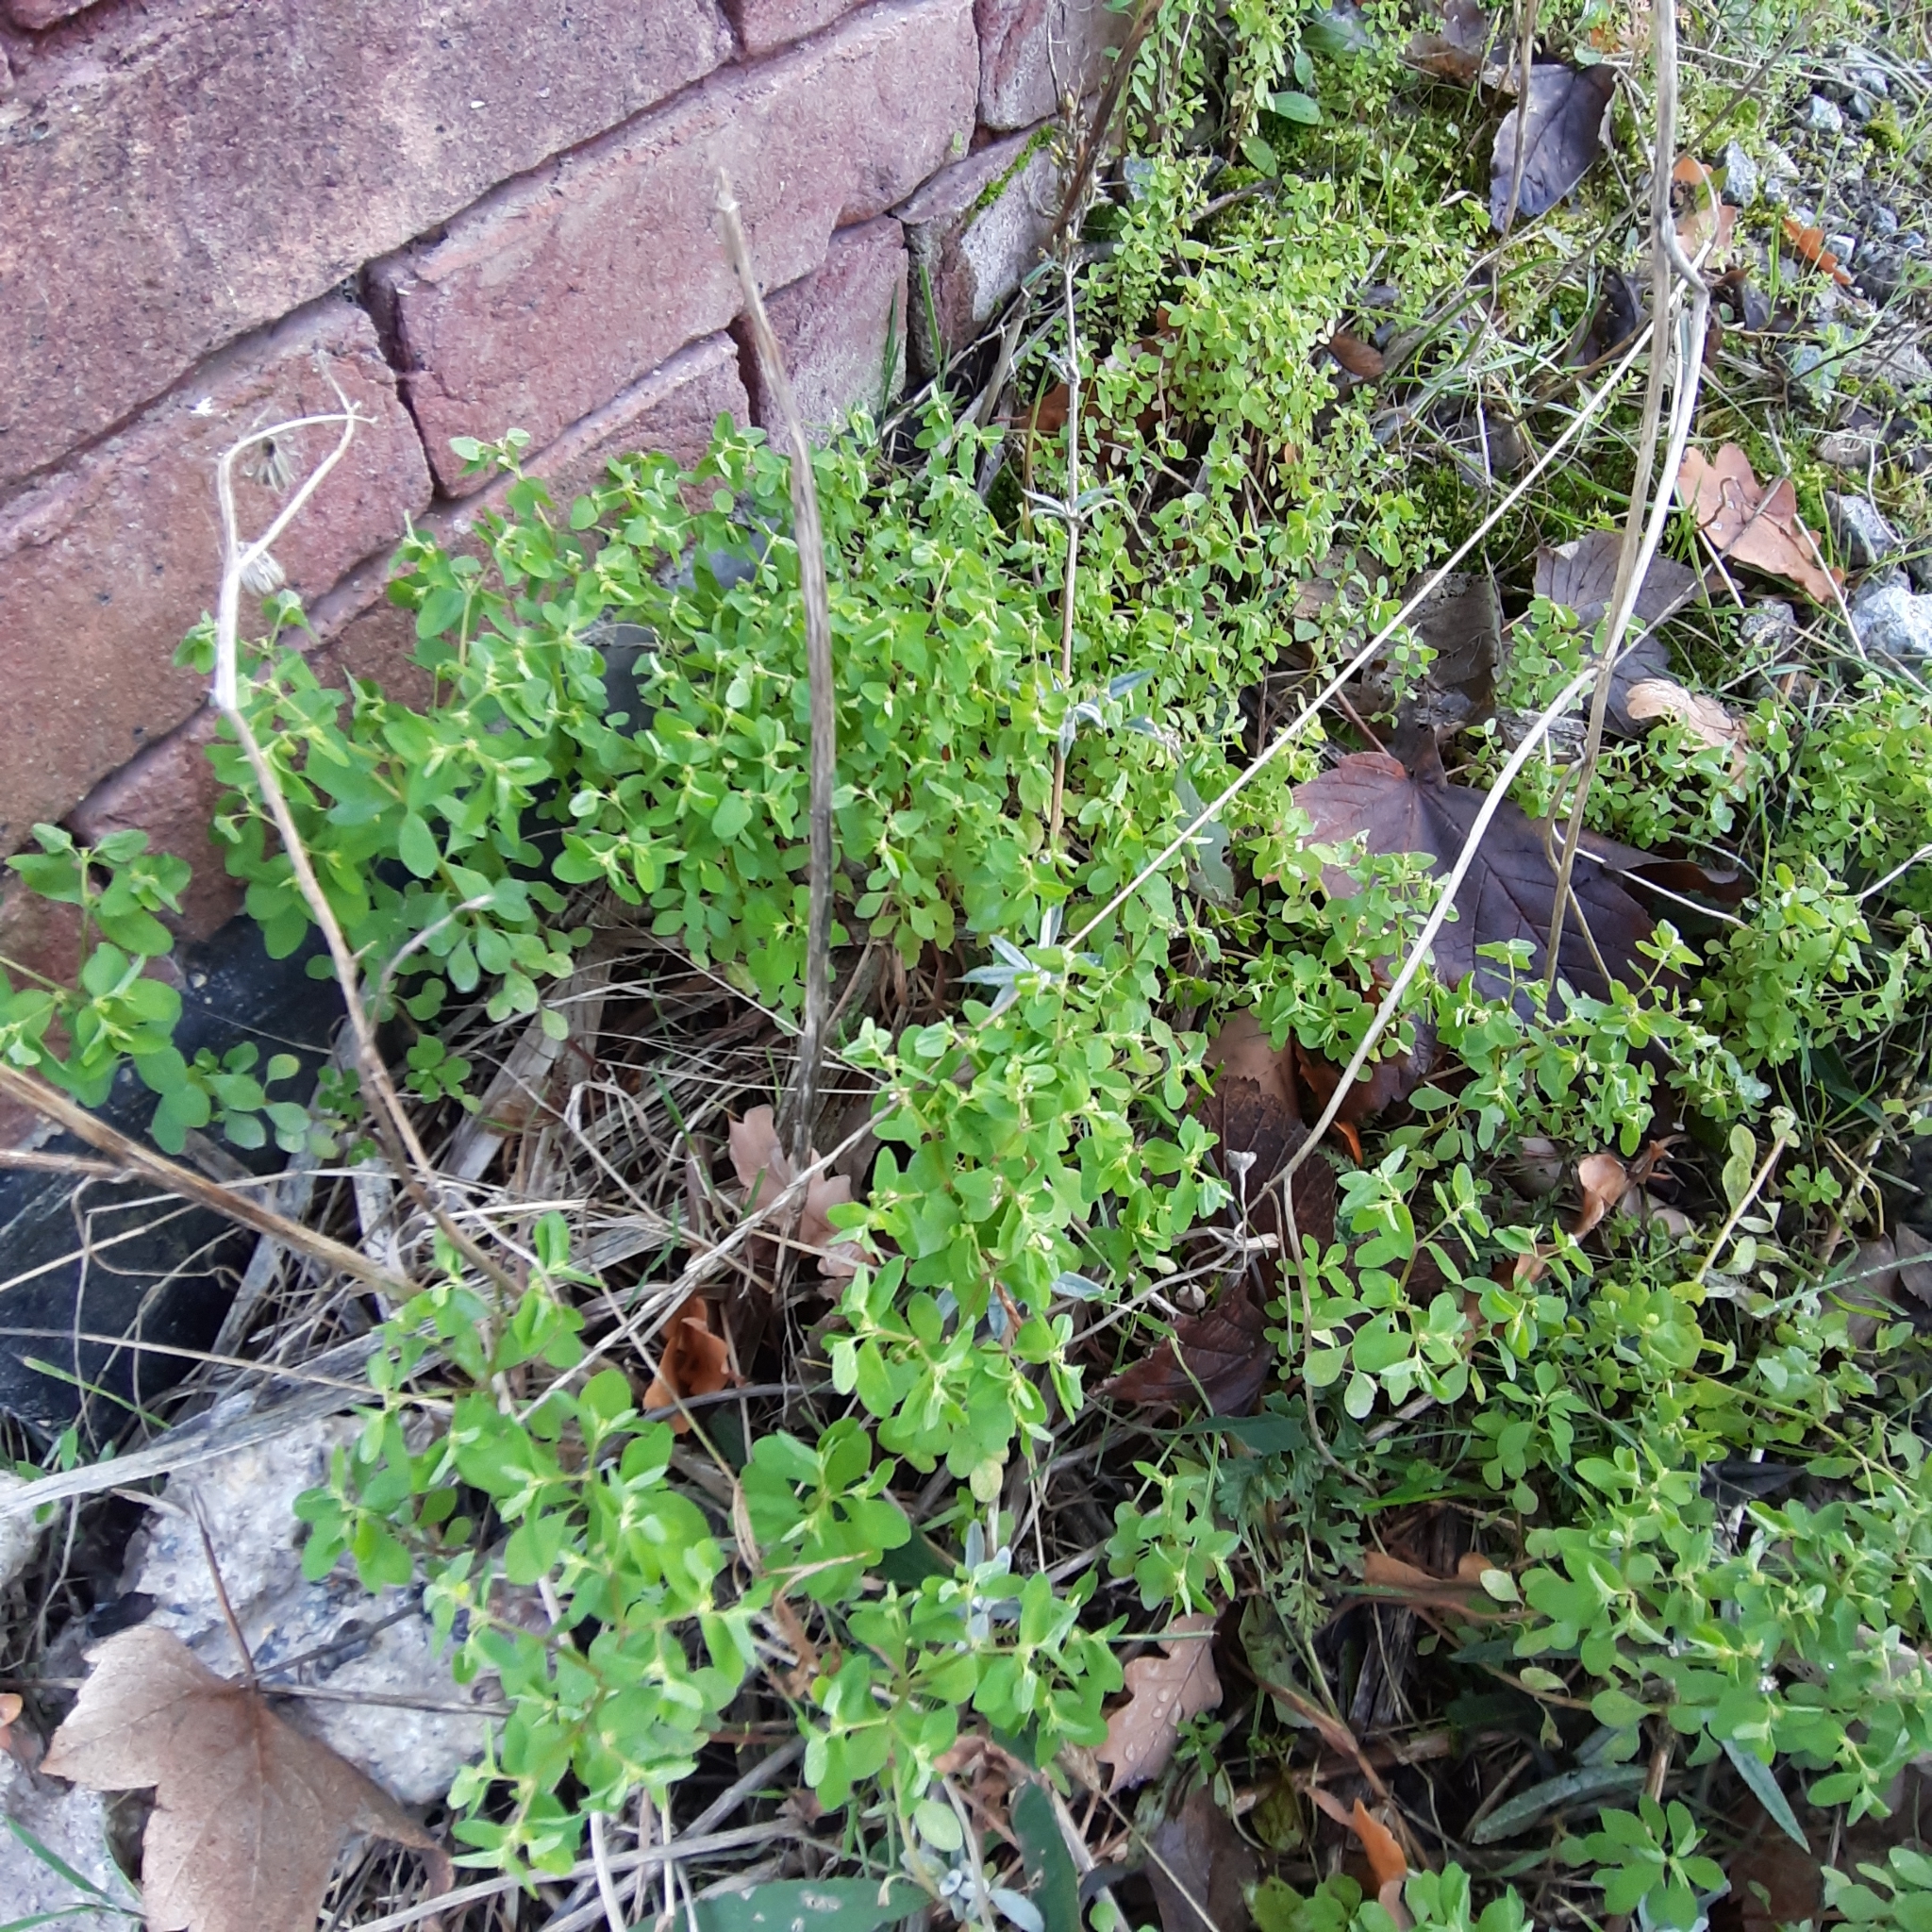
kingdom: Plantae
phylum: Tracheophyta
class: Magnoliopsida
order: Malpighiales
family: Euphorbiaceae
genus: Euphorbia
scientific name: Euphorbia peplus
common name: Petty spurge
